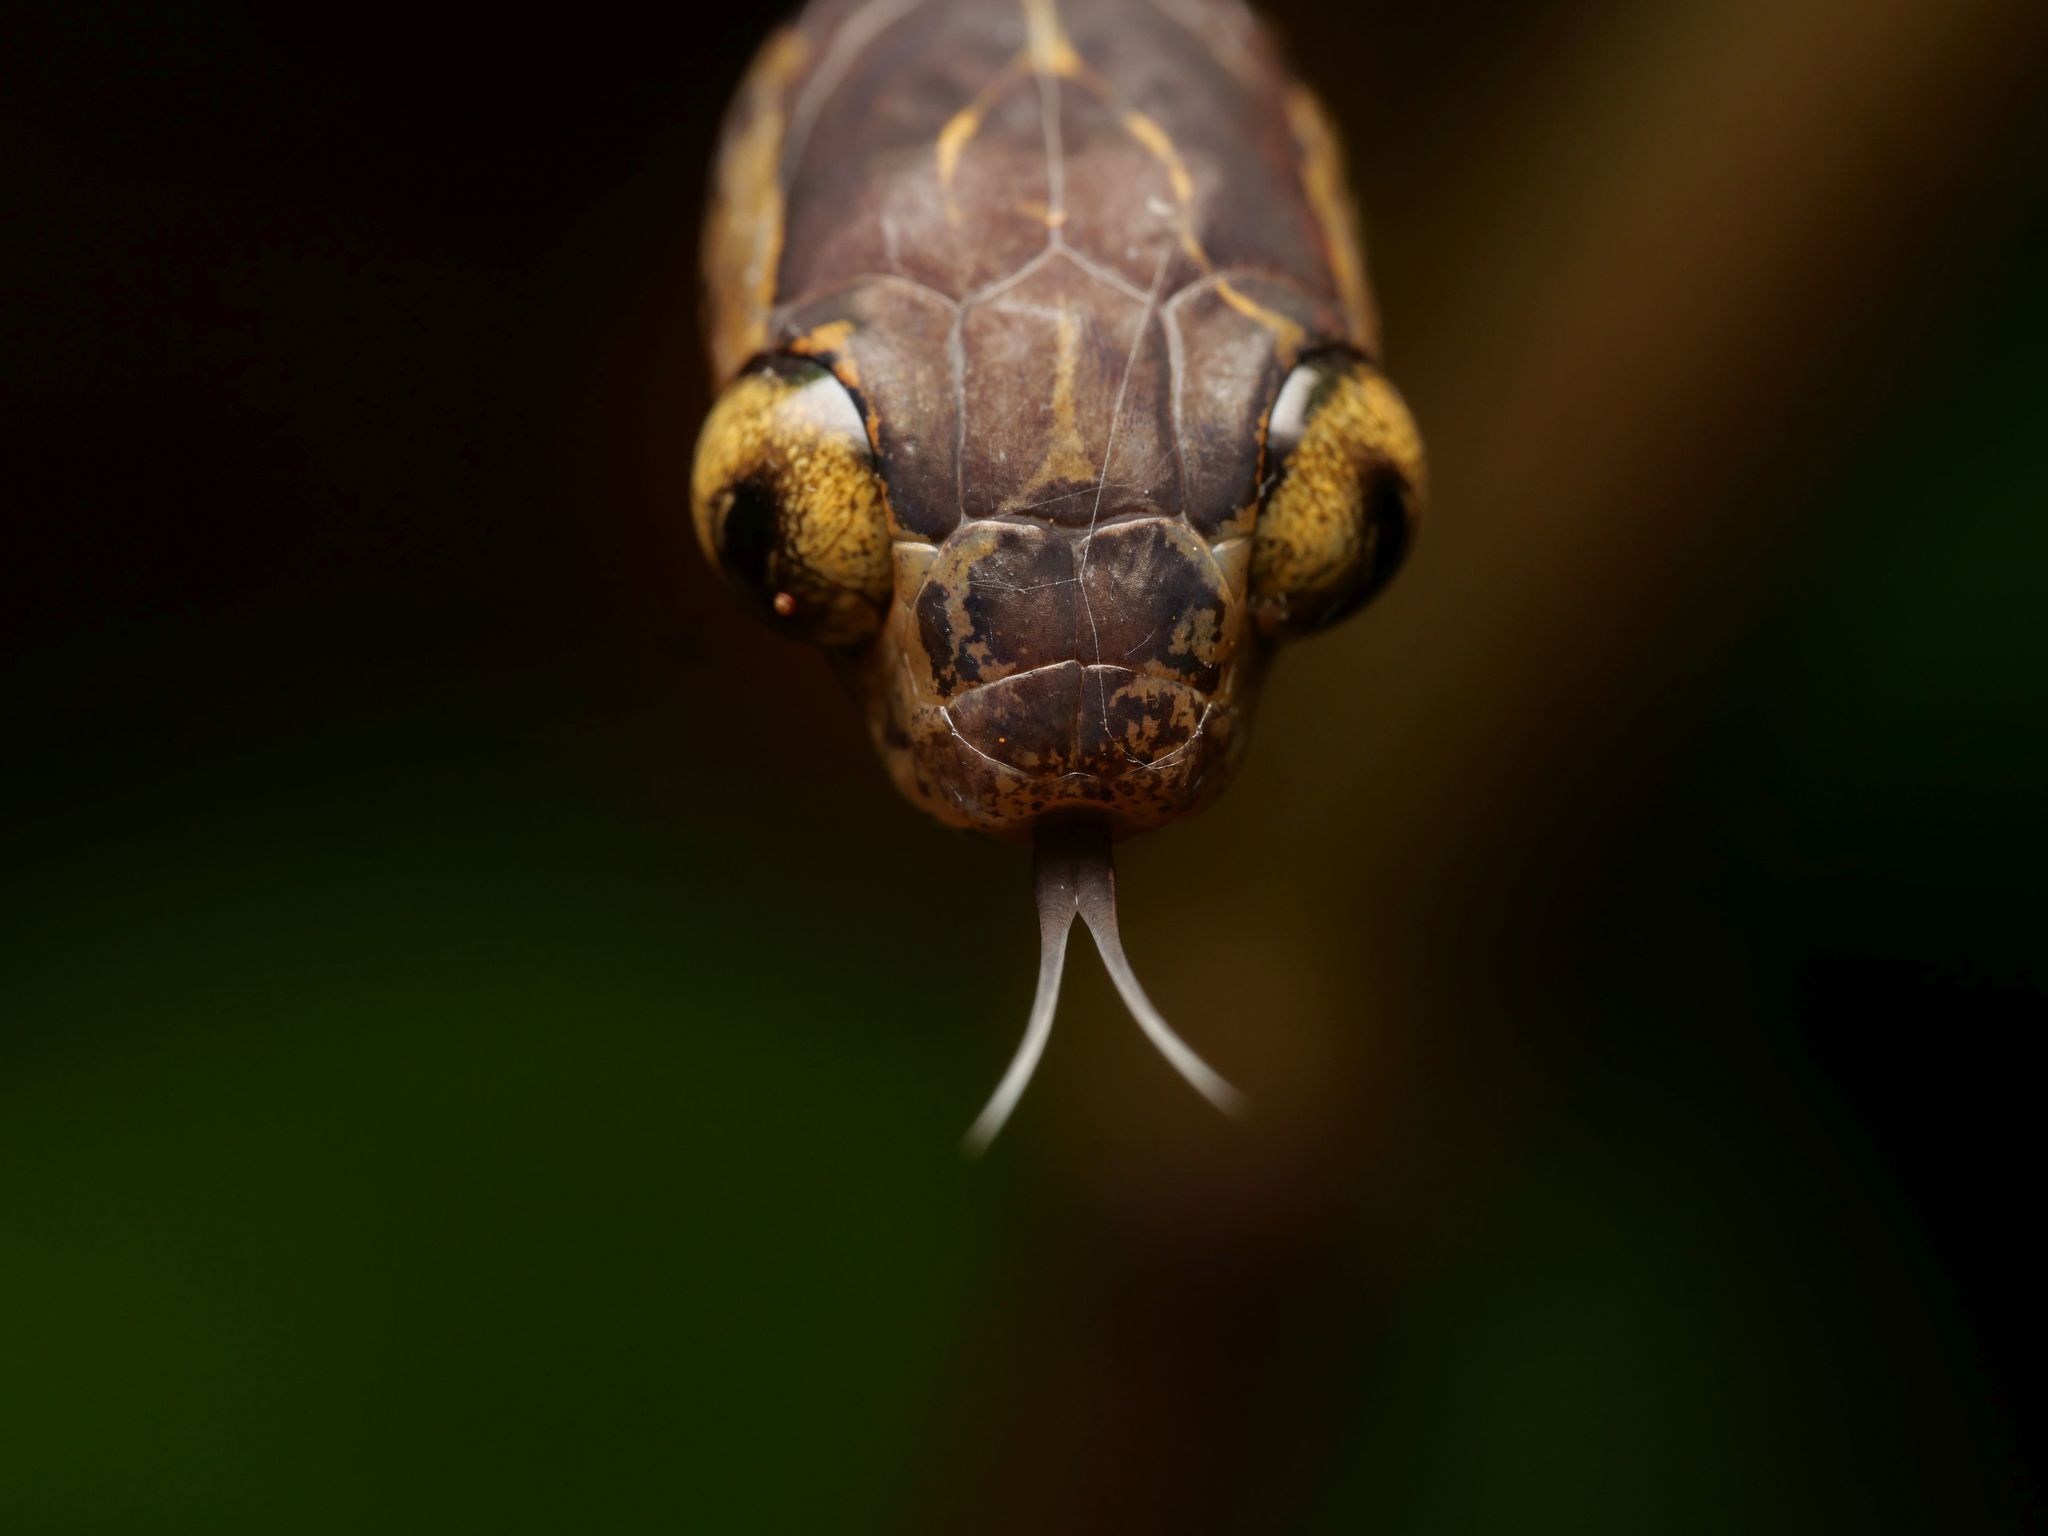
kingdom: Animalia
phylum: Chordata
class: Squamata
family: Colubridae
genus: Imantodes
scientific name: Imantodes cenchoa
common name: Blunthead tree snake
